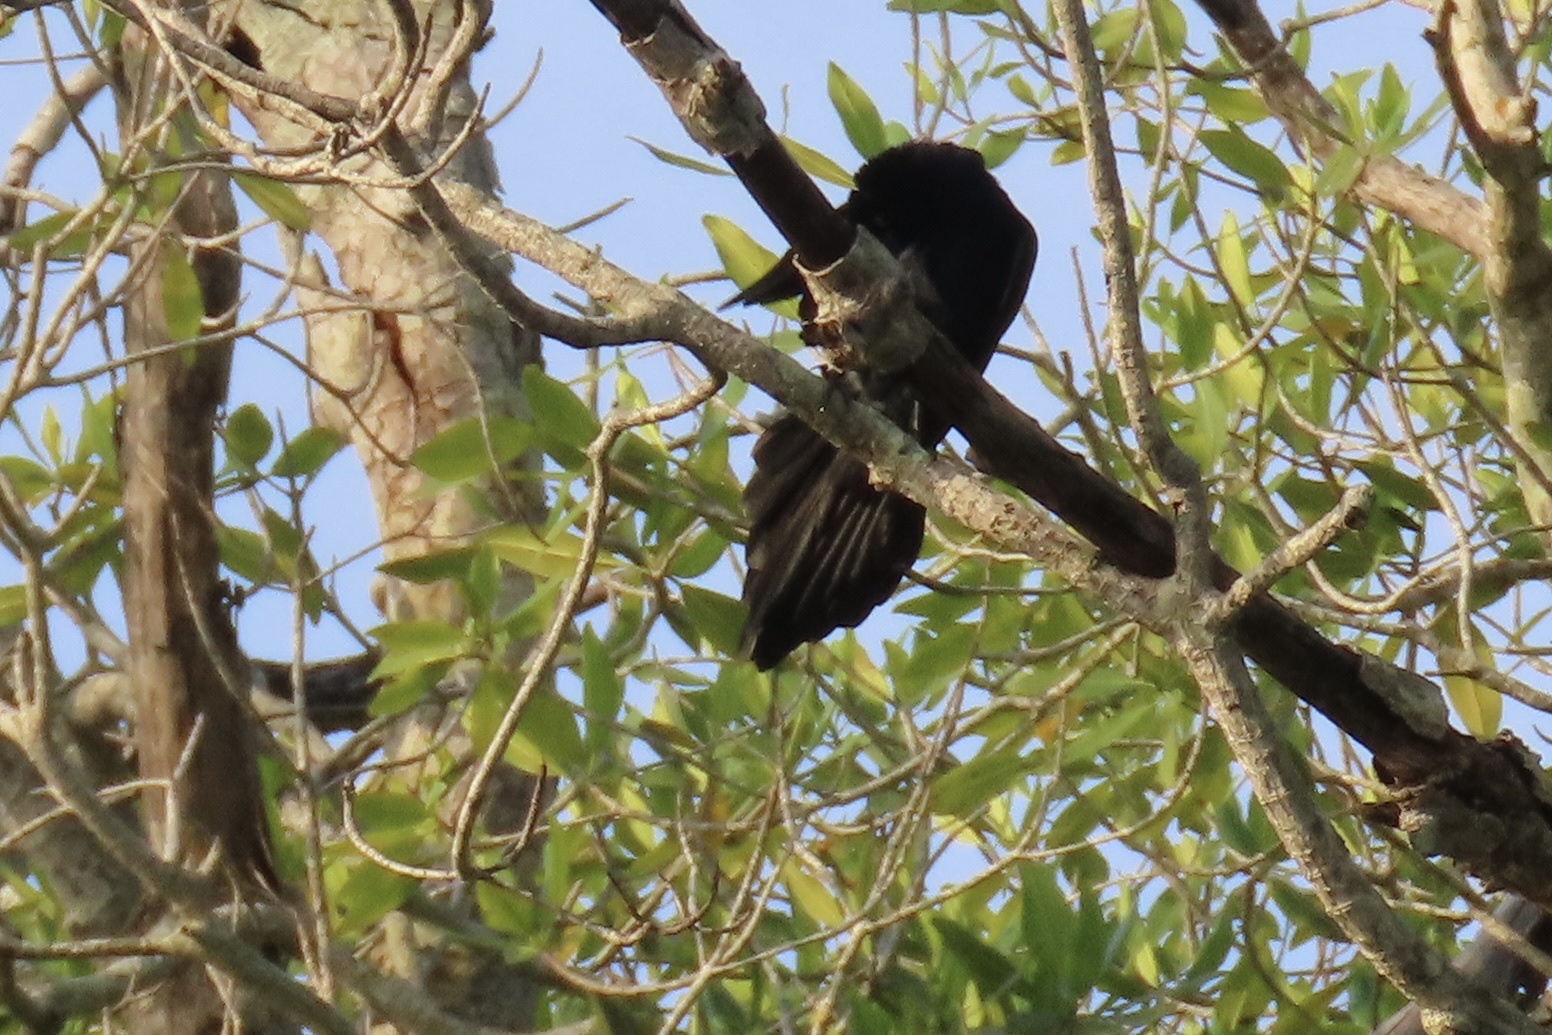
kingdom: Animalia
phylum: Chordata
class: Aves
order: Passeriformes
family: Icteridae
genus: Quiscalus
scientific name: Quiscalus mexicanus
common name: Great-tailed grackle
